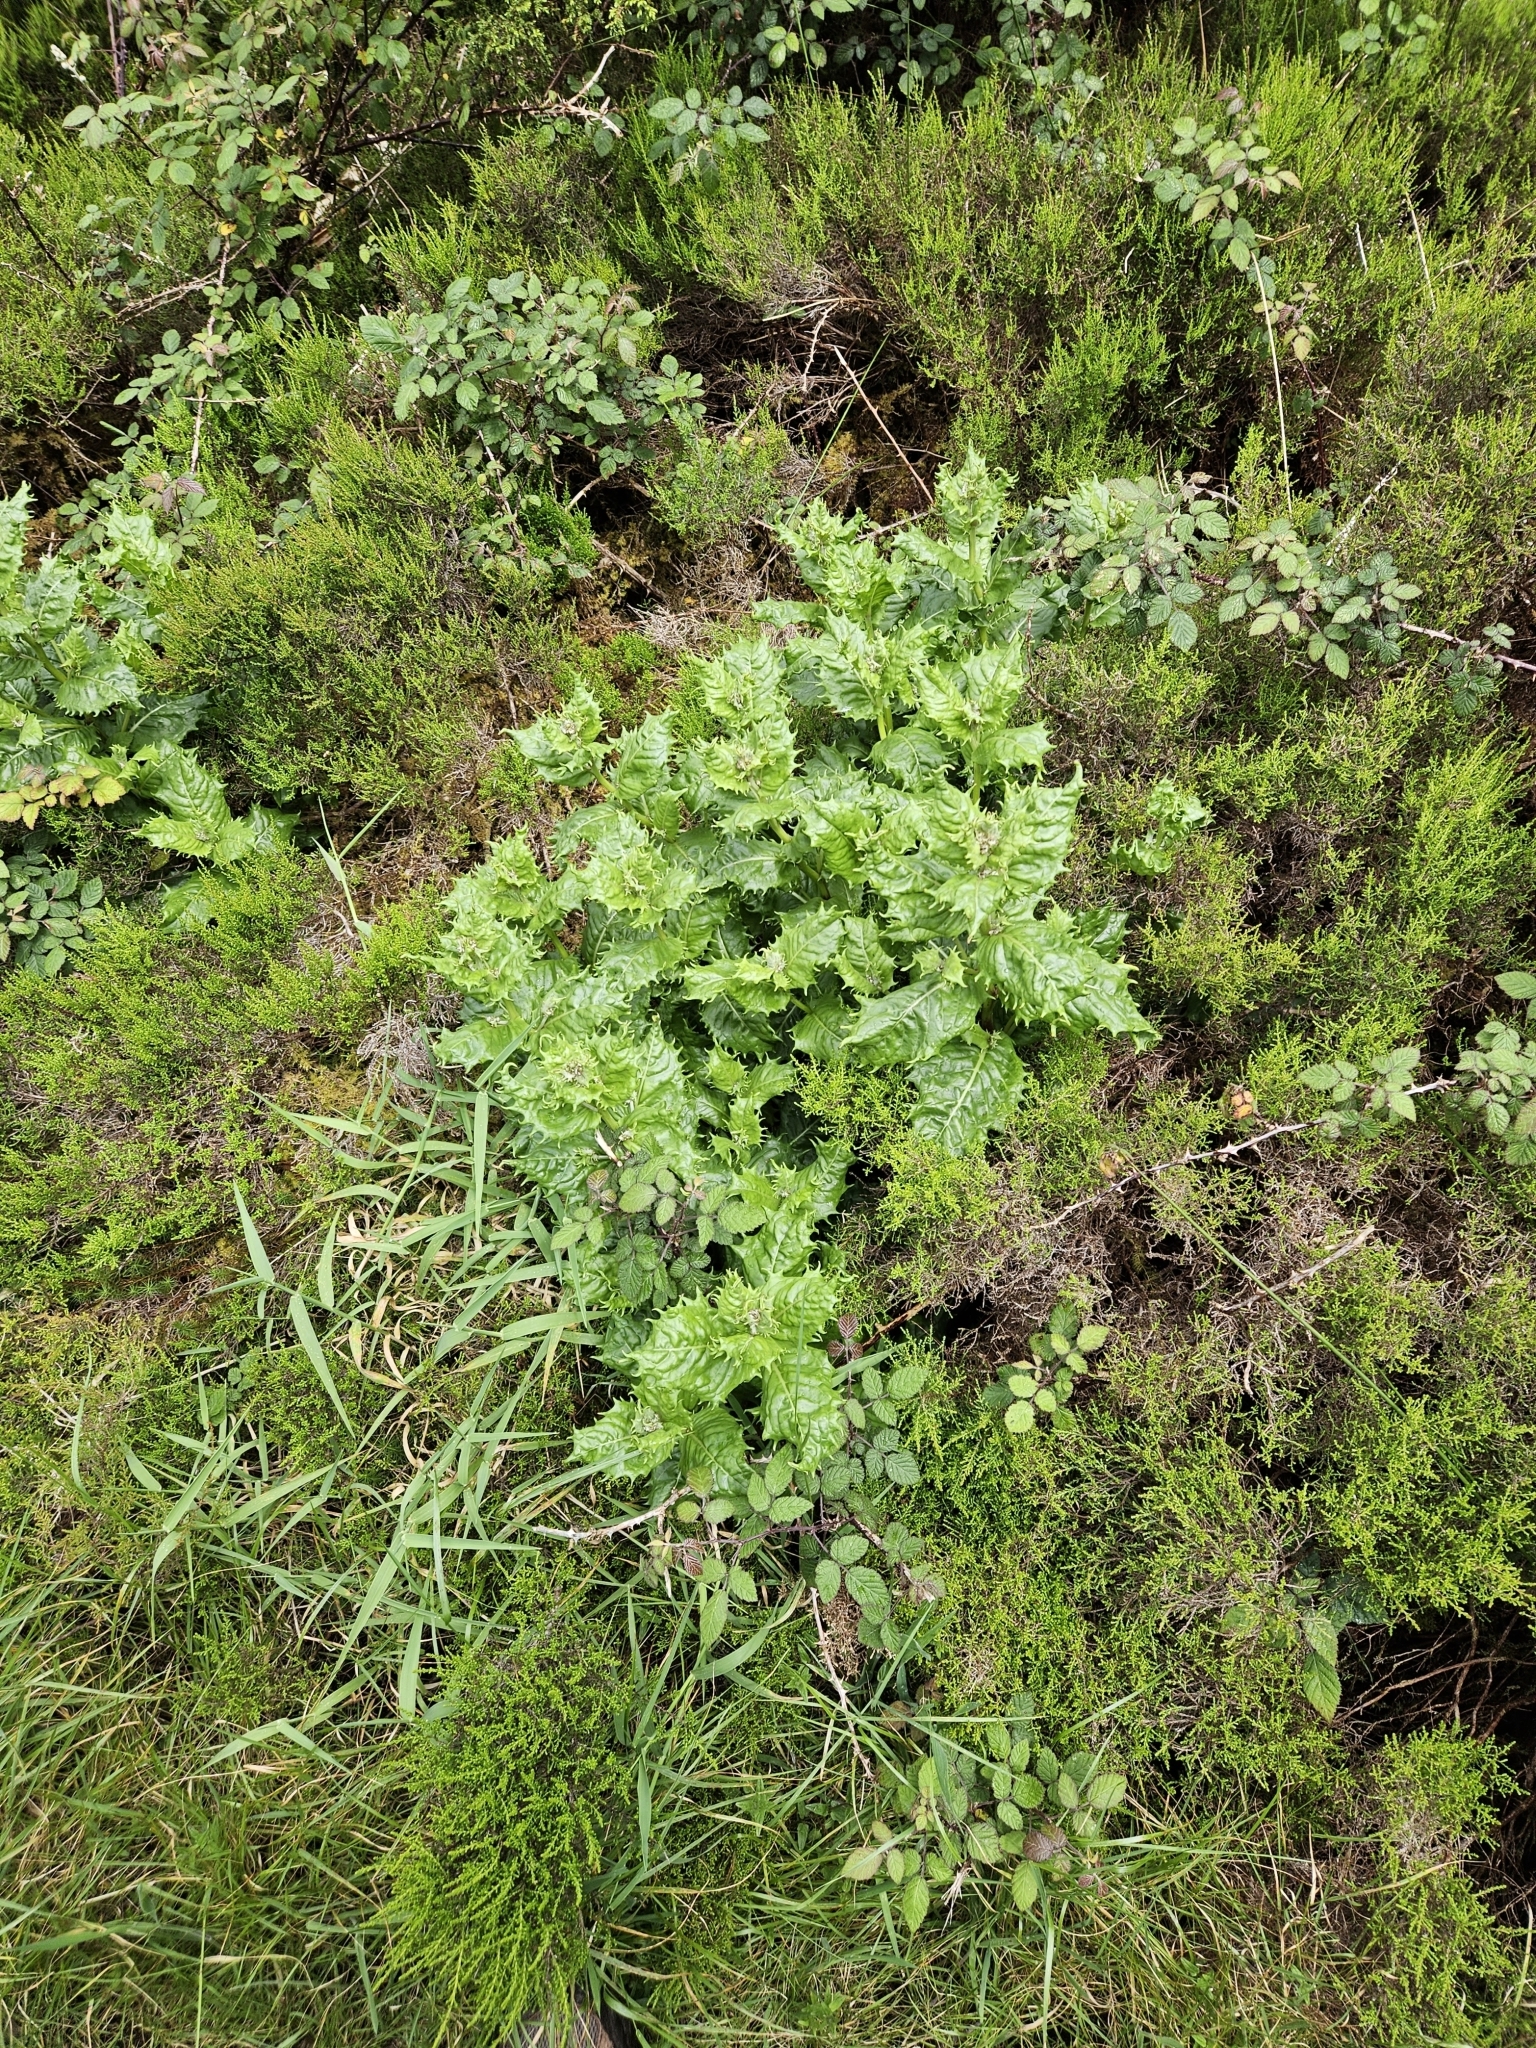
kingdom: Plantae
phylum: Tracheophyta
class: Magnoliopsida
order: Asterales
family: Asteraceae
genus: Tolpis
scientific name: Tolpis azorica
